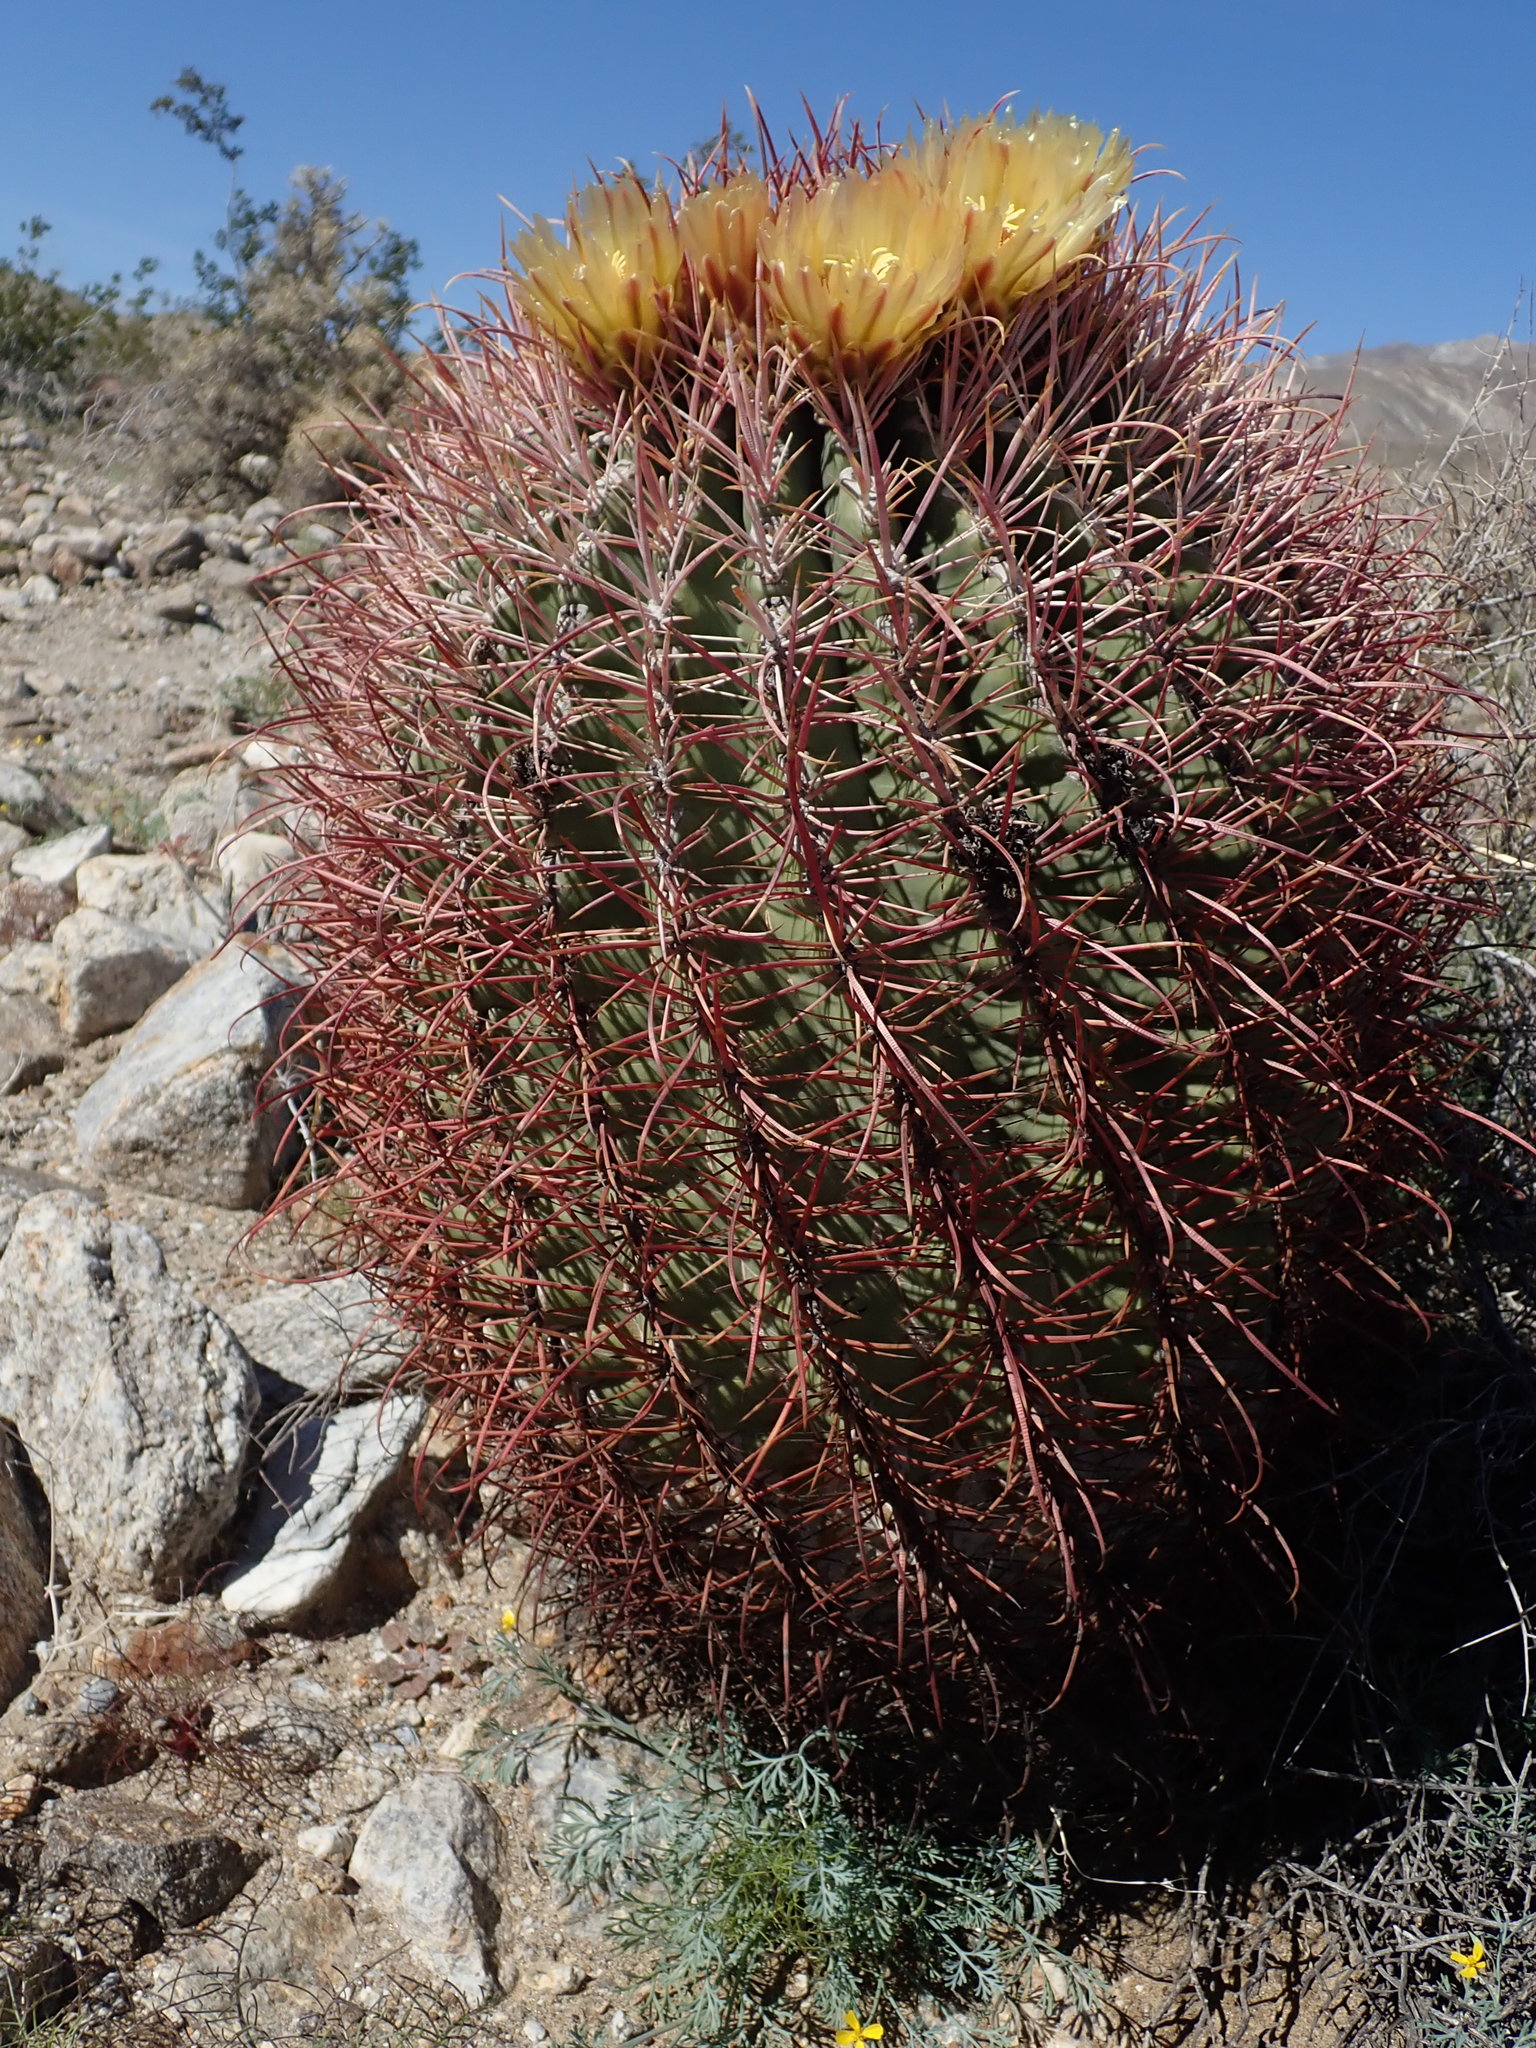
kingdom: Plantae
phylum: Tracheophyta
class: Magnoliopsida
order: Caryophyllales
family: Cactaceae
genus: Ferocactus
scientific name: Ferocactus cylindraceus
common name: California barrel cactus
